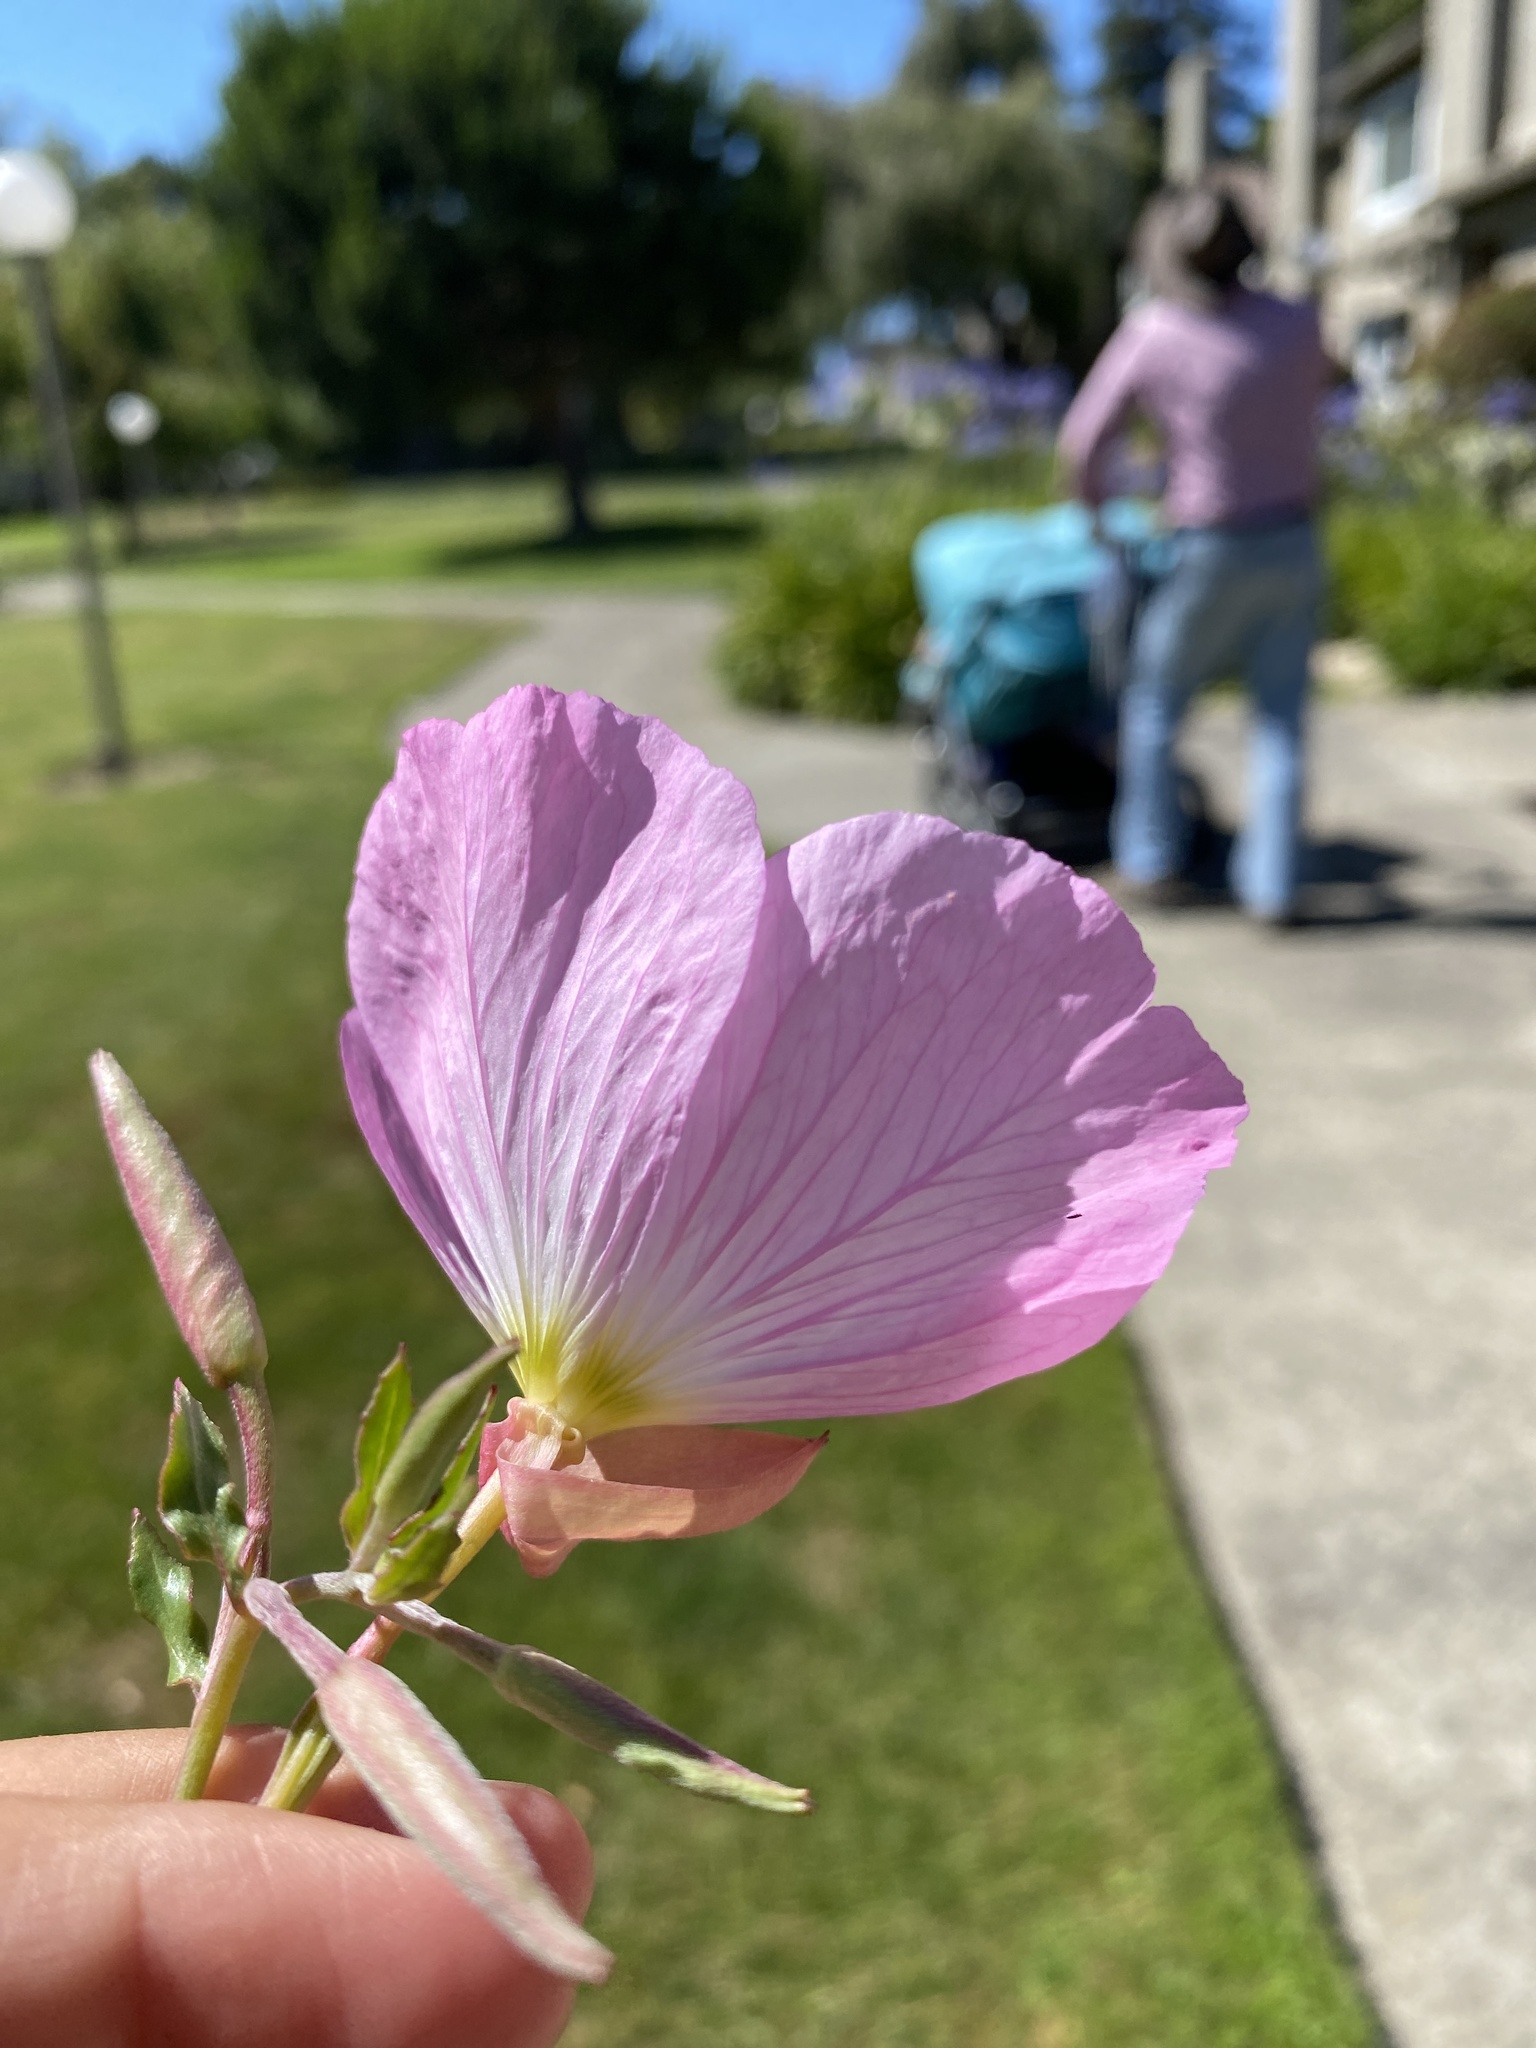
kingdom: Plantae
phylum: Tracheophyta
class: Magnoliopsida
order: Myrtales
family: Onagraceae
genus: Oenothera
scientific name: Oenothera speciosa
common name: White evening-primrose
